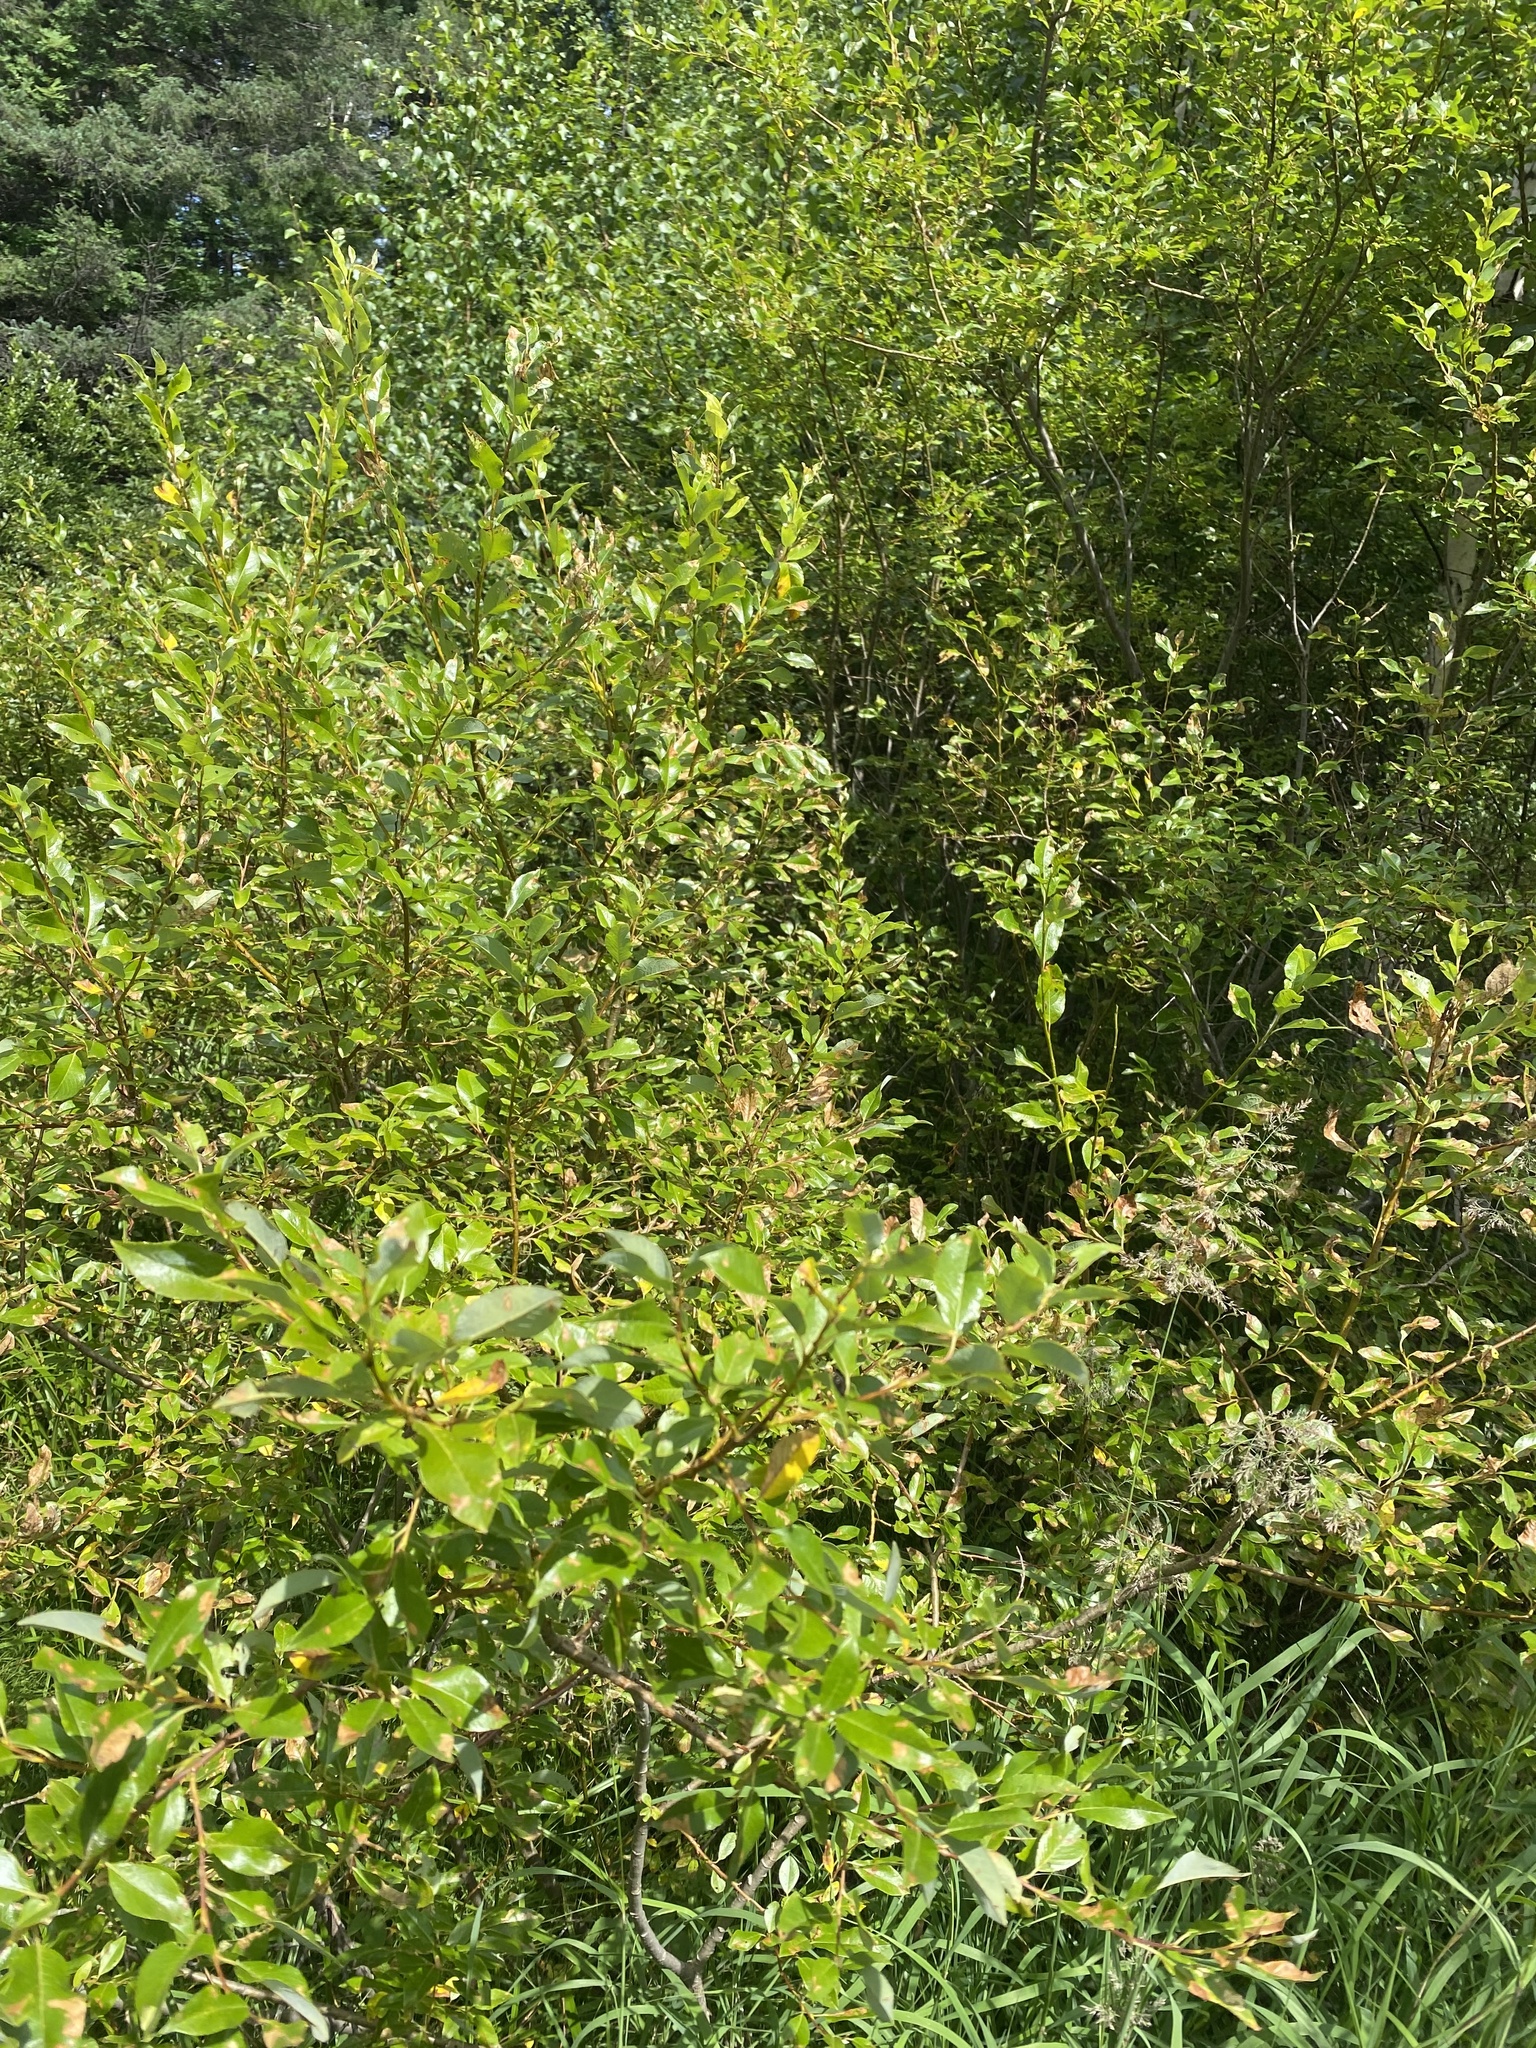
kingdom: Plantae
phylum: Tracheophyta
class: Magnoliopsida
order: Malpighiales
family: Salicaceae
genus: Salix
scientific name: Salix rhamnifolia
